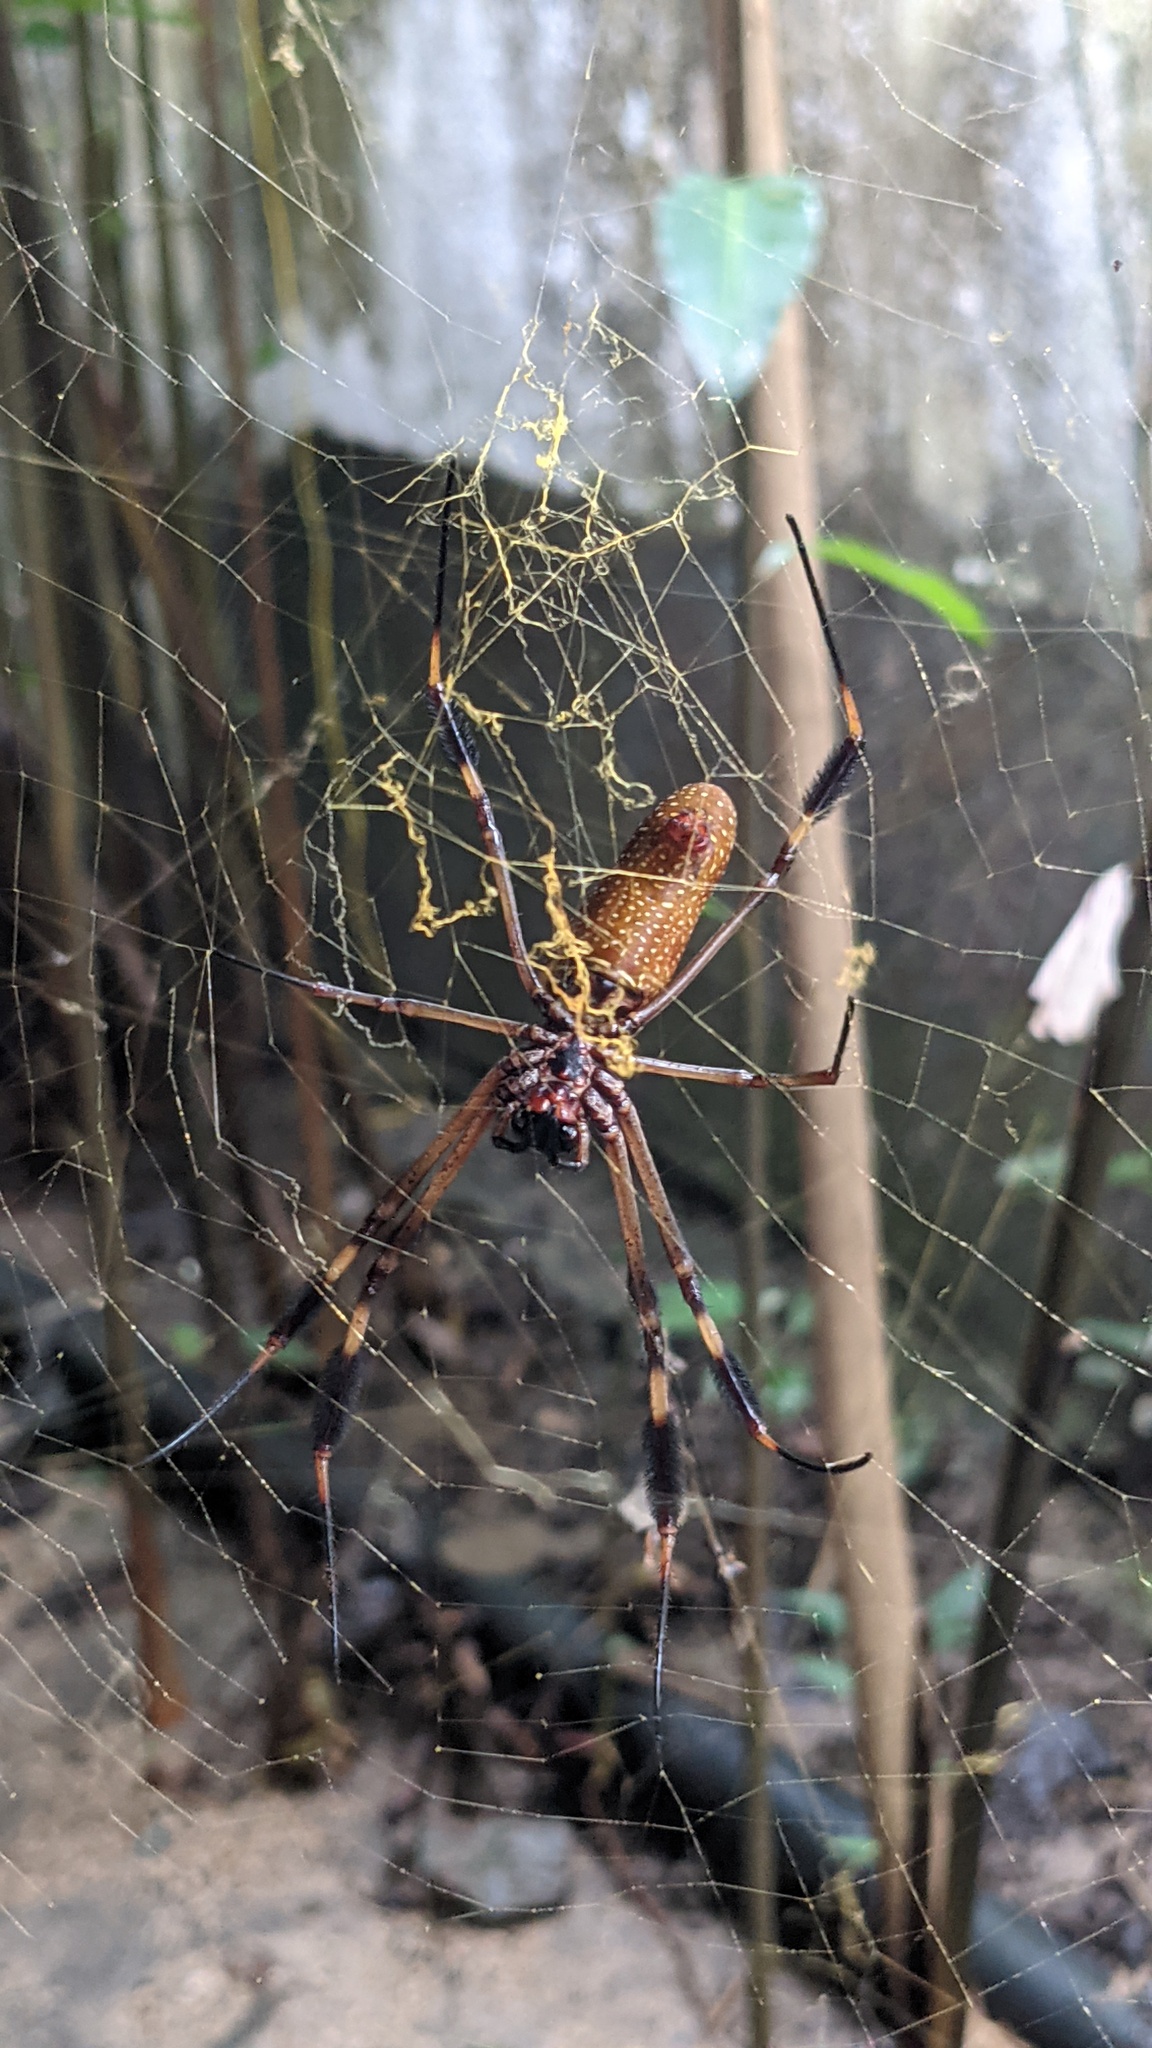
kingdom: Animalia
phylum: Arthropoda
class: Arachnida
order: Araneae
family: Araneidae
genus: Trichonephila
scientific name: Trichonephila clavipes
